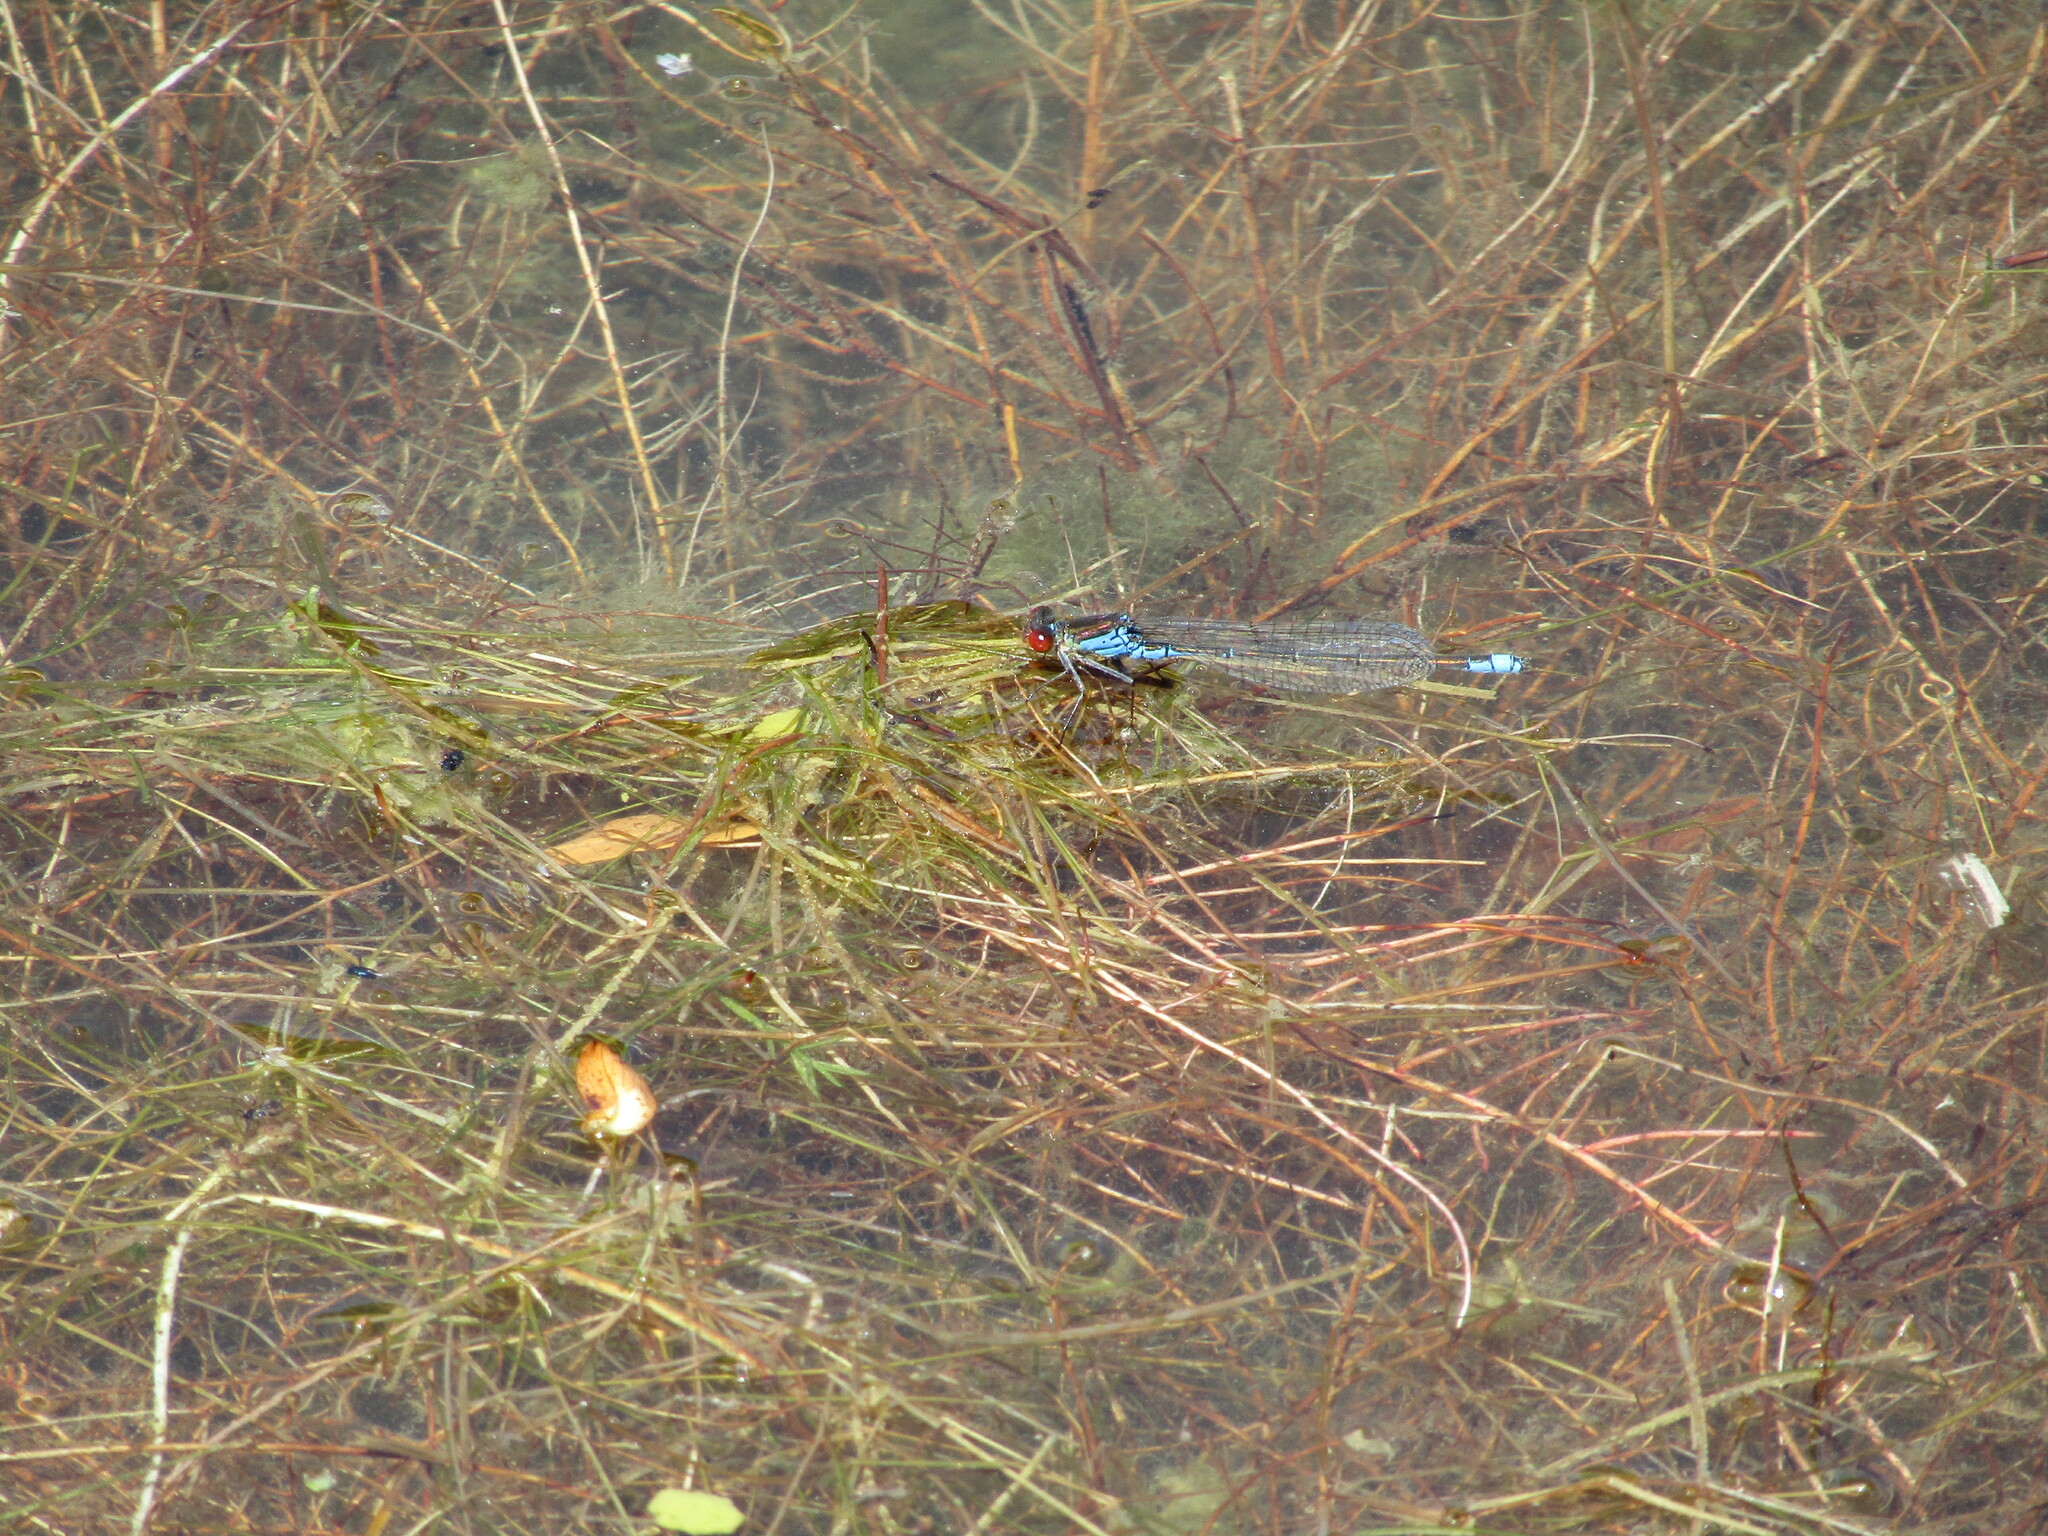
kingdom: Animalia
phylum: Arthropoda
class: Insecta
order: Odonata
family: Coenagrionidae
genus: Erythromma
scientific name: Erythromma viridulum
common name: Small red-eyed damselfly
